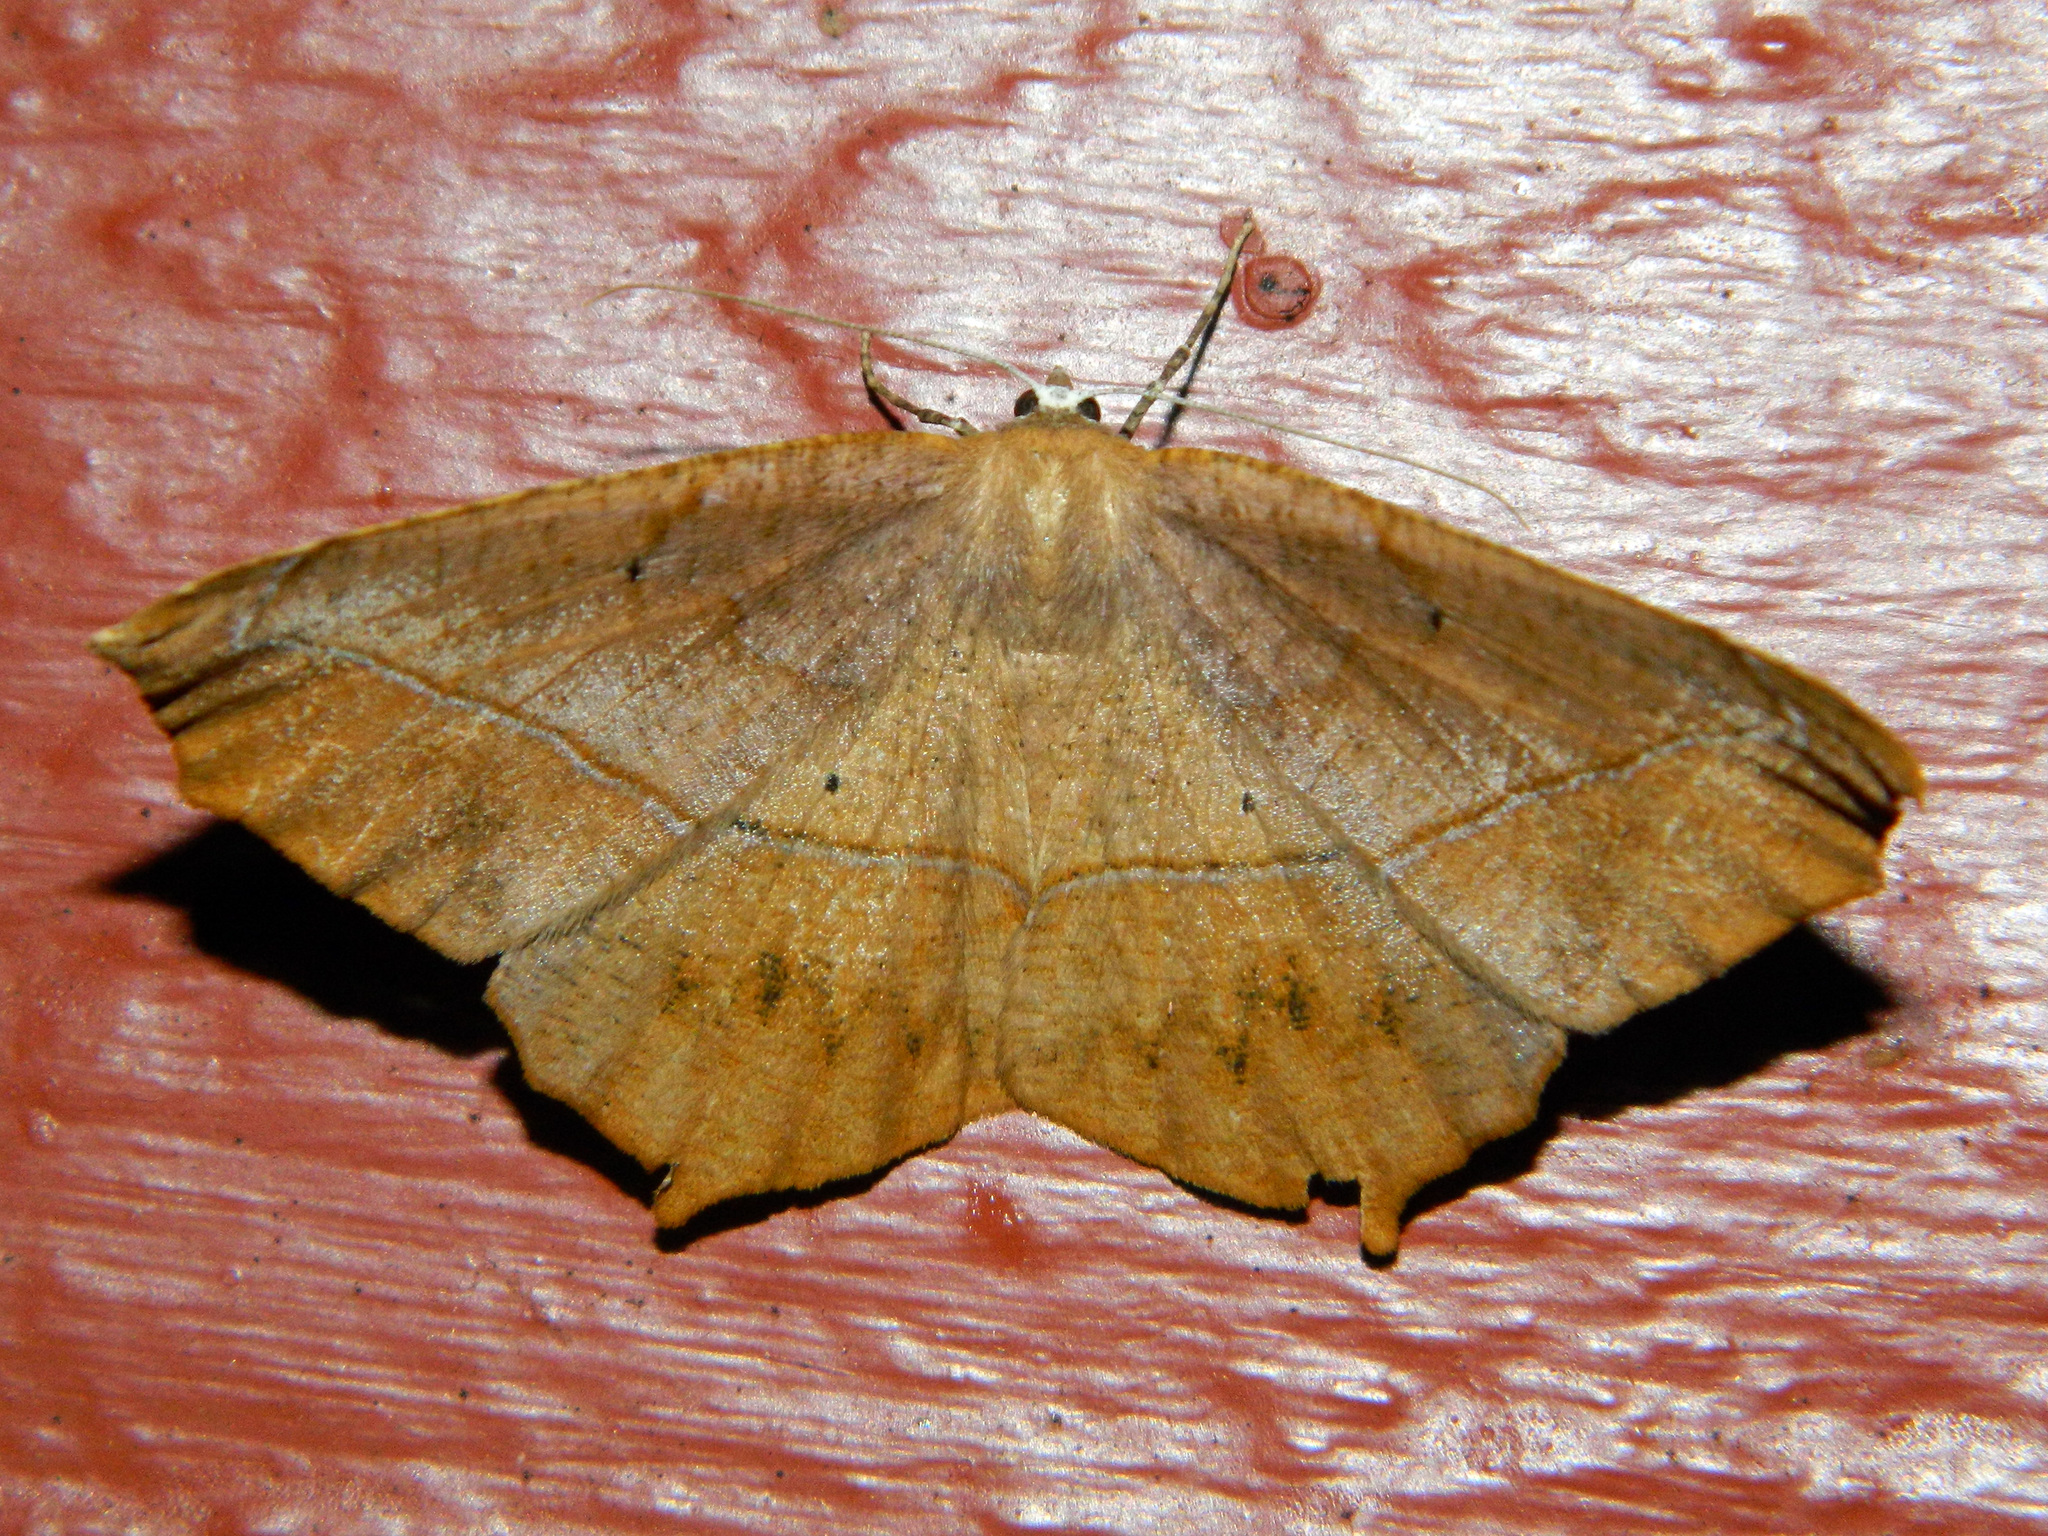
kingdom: Animalia
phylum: Arthropoda
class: Insecta
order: Lepidoptera
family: Geometridae
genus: Prochoerodes
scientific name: Prochoerodes lineola
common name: Large maple spanworm
